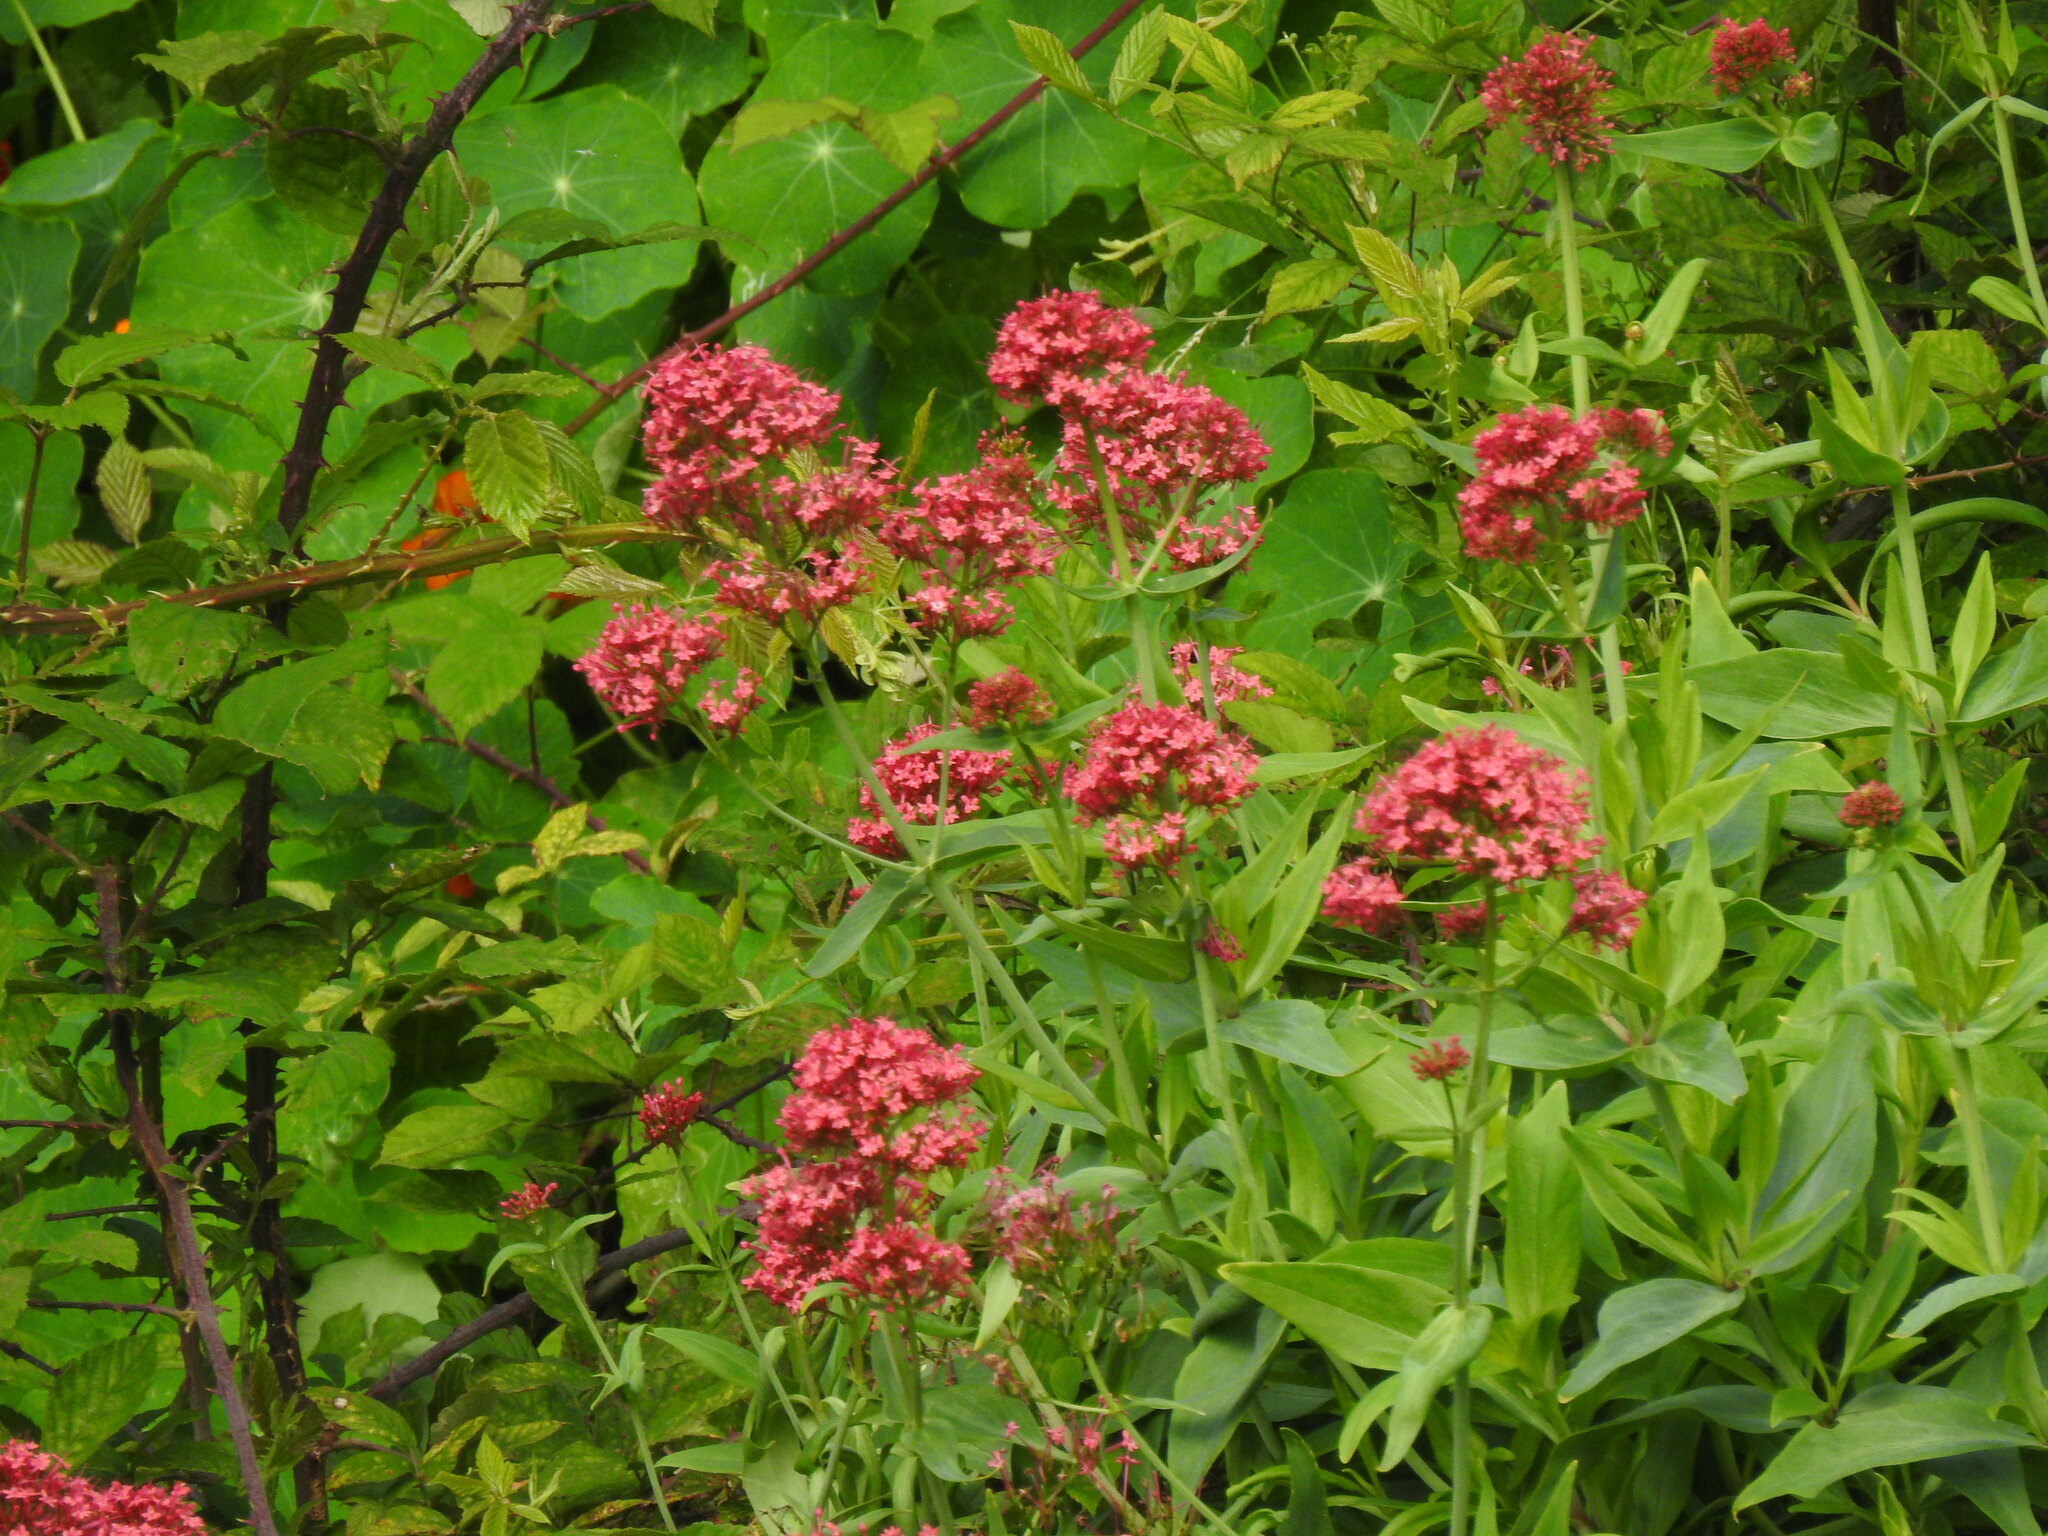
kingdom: Plantae
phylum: Tracheophyta
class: Magnoliopsida
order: Dipsacales
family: Caprifoliaceae
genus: Centranthus
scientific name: Centranthus ruber
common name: Red valerian
